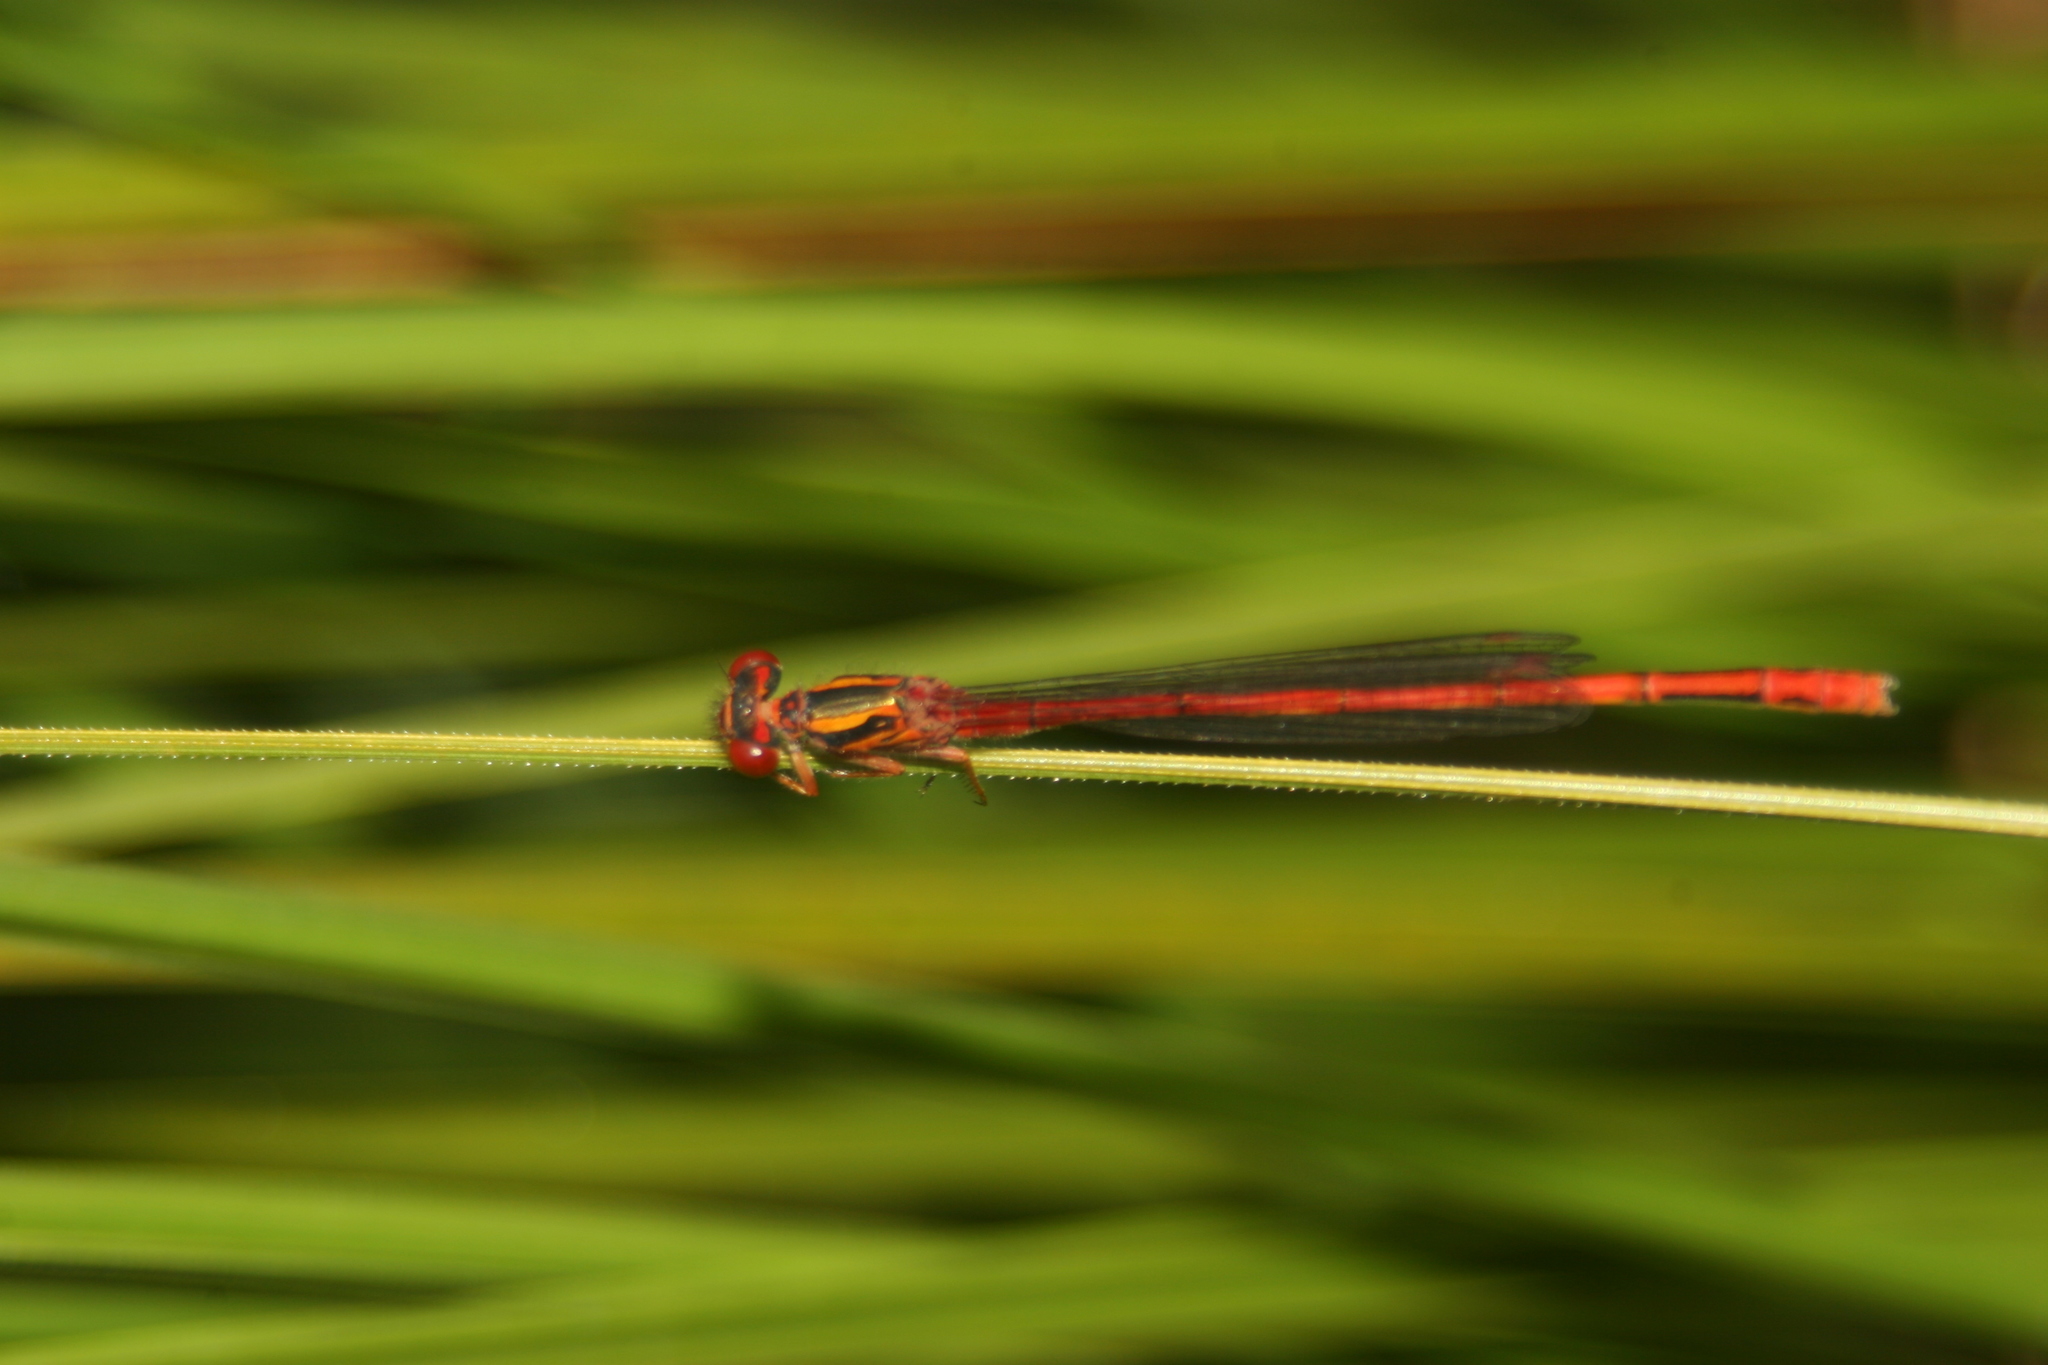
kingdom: Animalia
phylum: Arthropoda
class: Insecta
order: Odonata
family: Coenagrionidae
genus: Xanthocnemis
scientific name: Xanthocnemis zealandica
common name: Common redcoat damselfly
